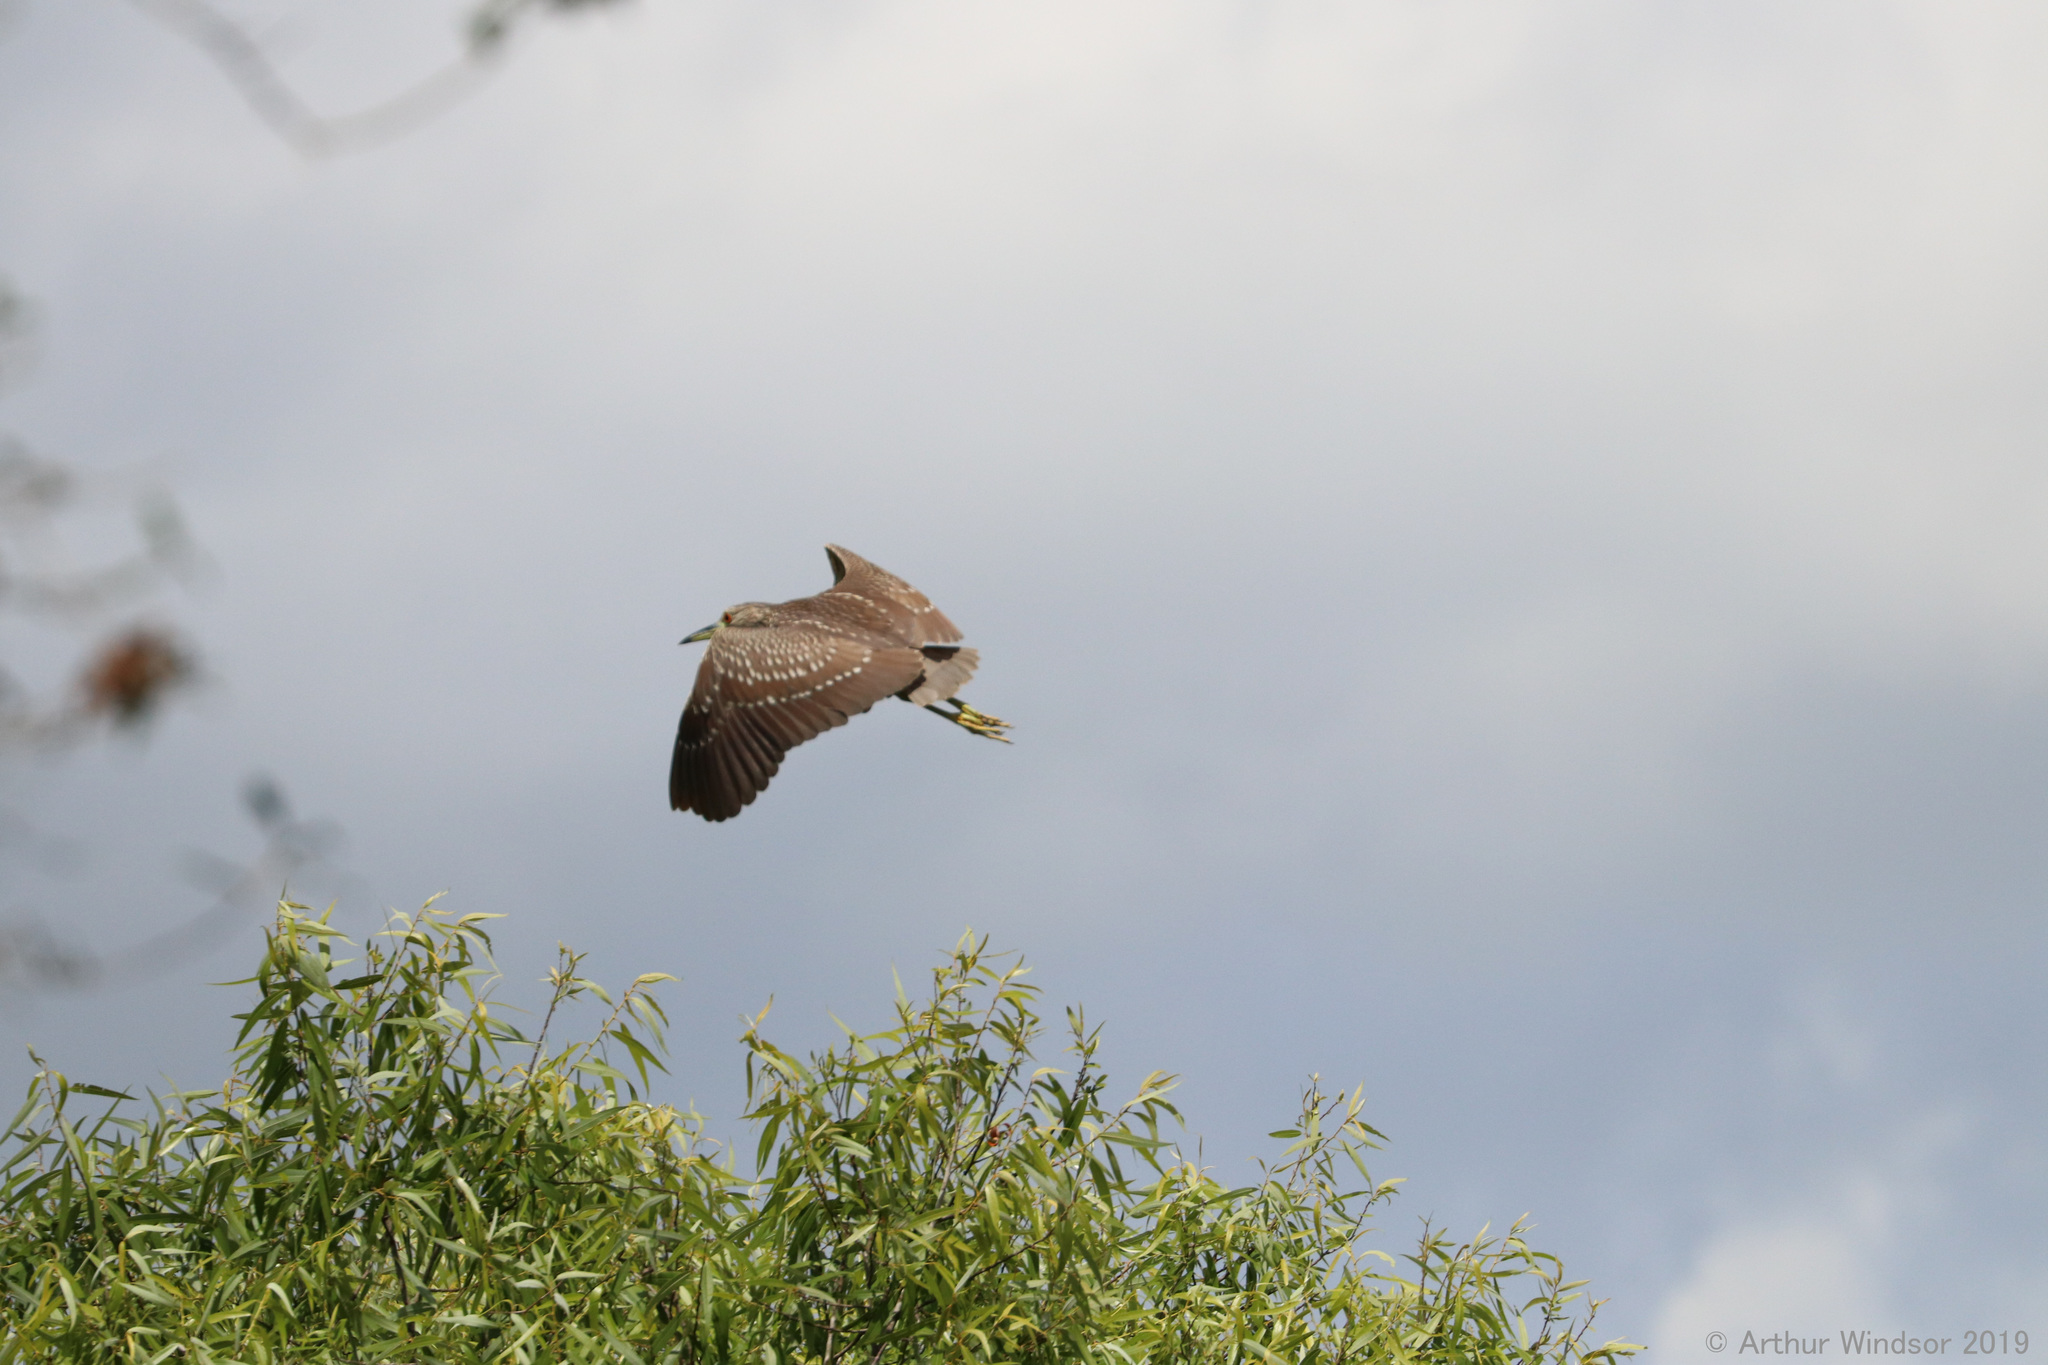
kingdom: Animalia
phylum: Chordata
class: Aves
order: Pelecaniformes
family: Ardeidae
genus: Nycticorax
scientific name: Nycticorax nycticorax
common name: Black-crowned night heron
